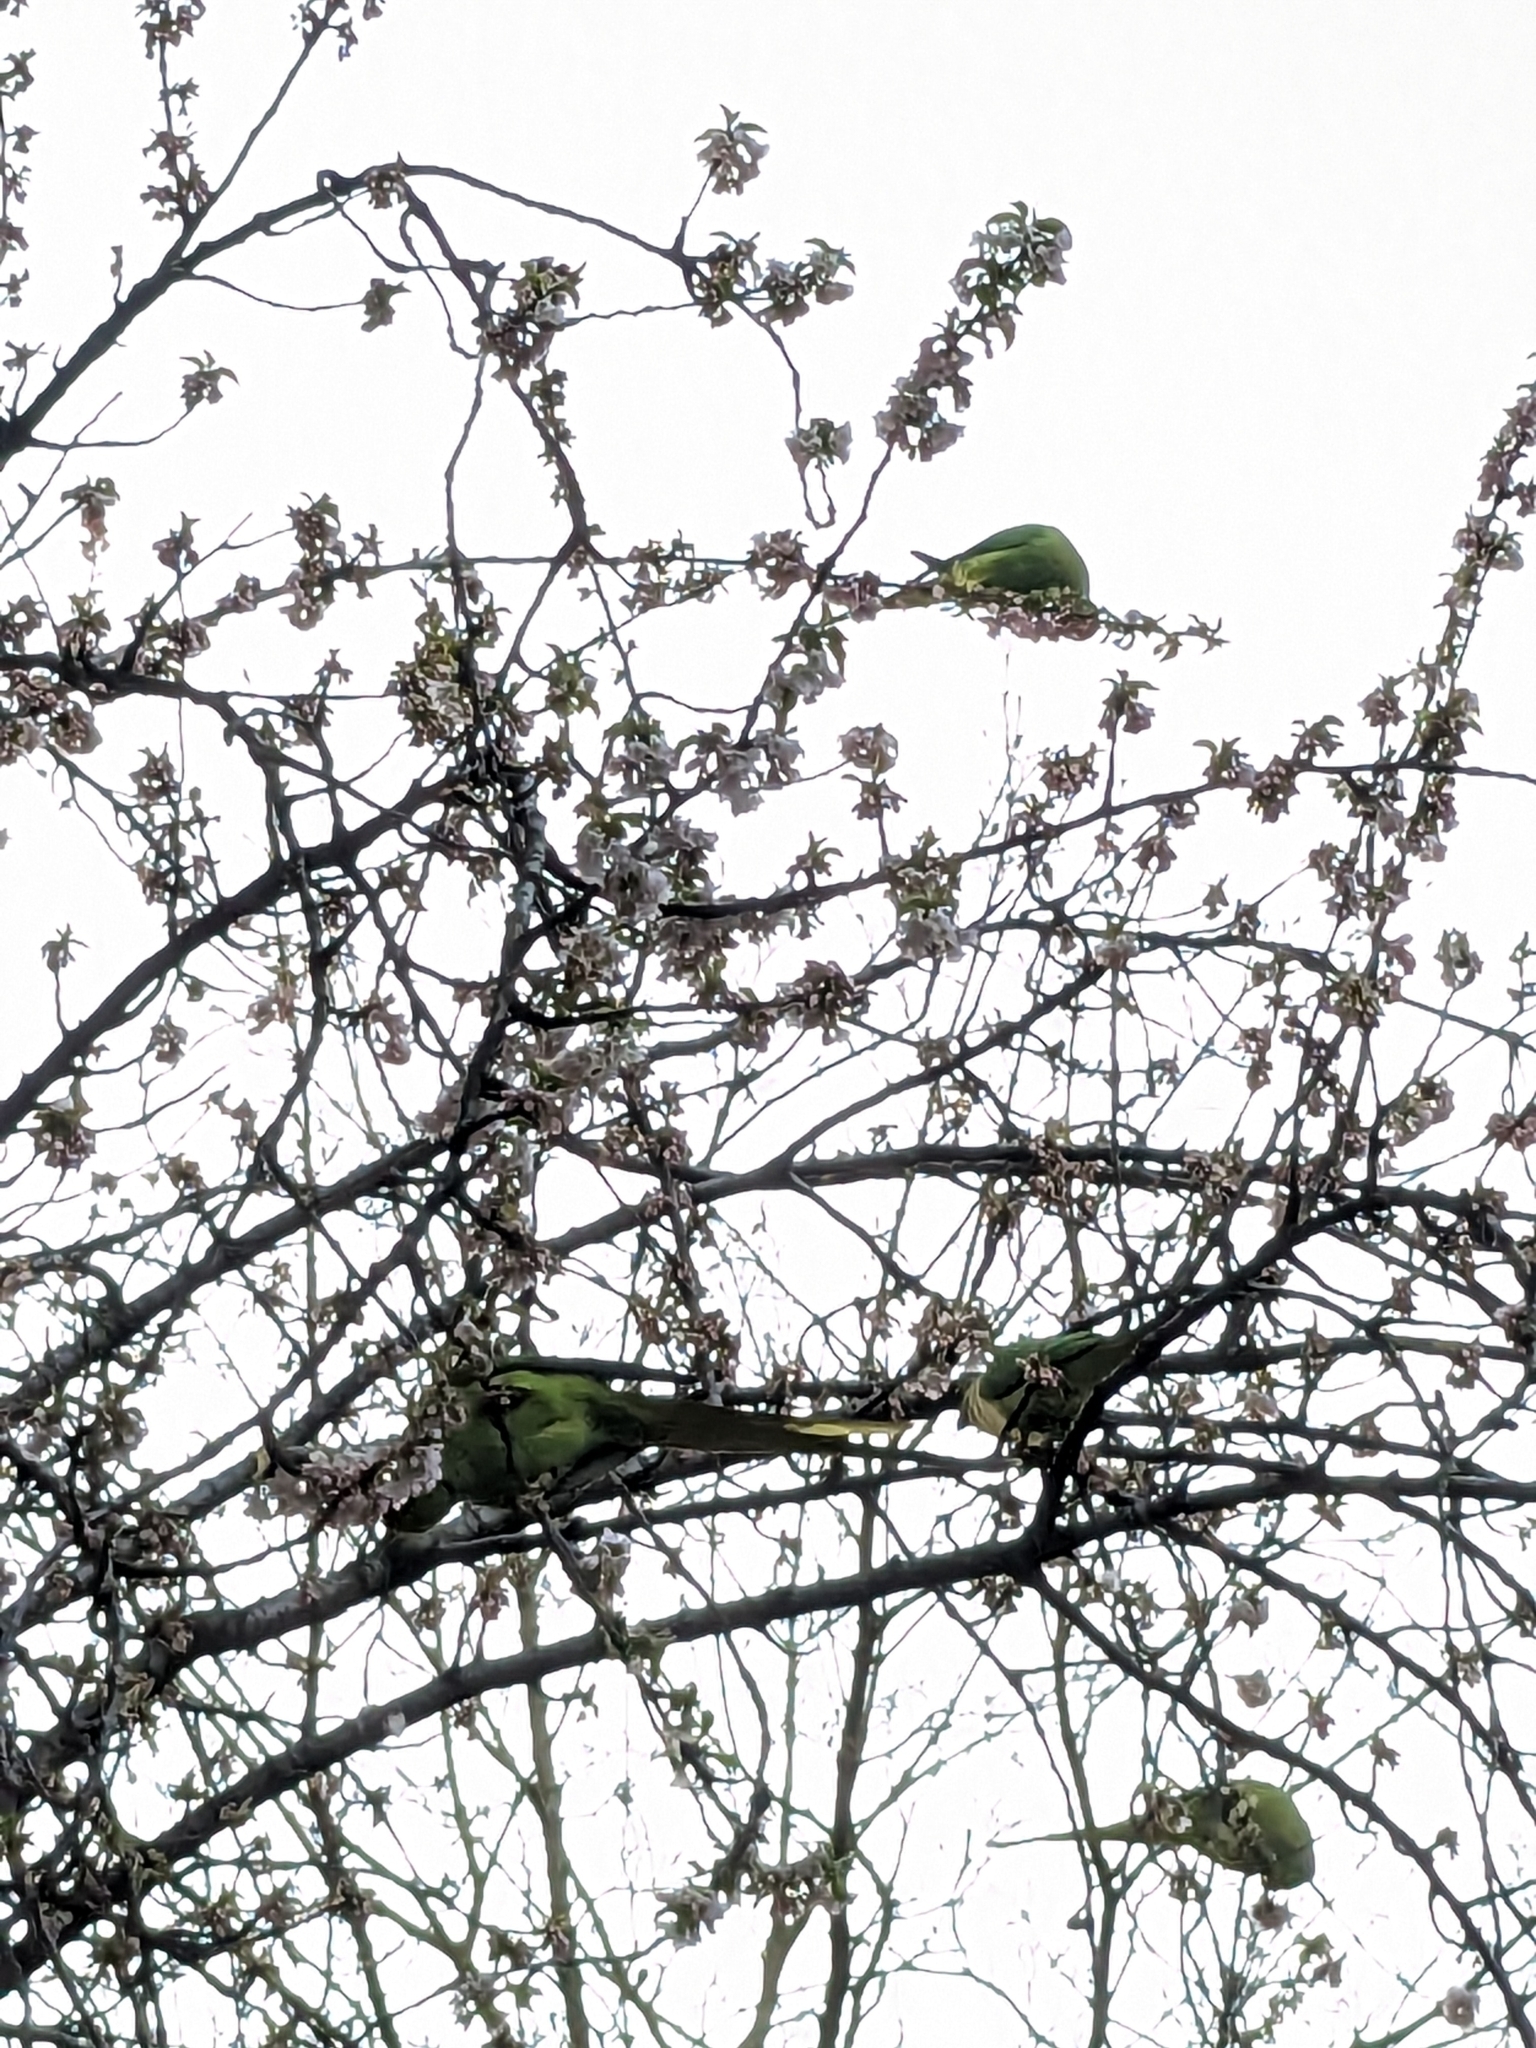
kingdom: Animalia
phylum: Chordata
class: Aves
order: Psittaciformes
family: Psittacidae
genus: Psittacula
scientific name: Psittacula krameri
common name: Rose-ringed parakeet
